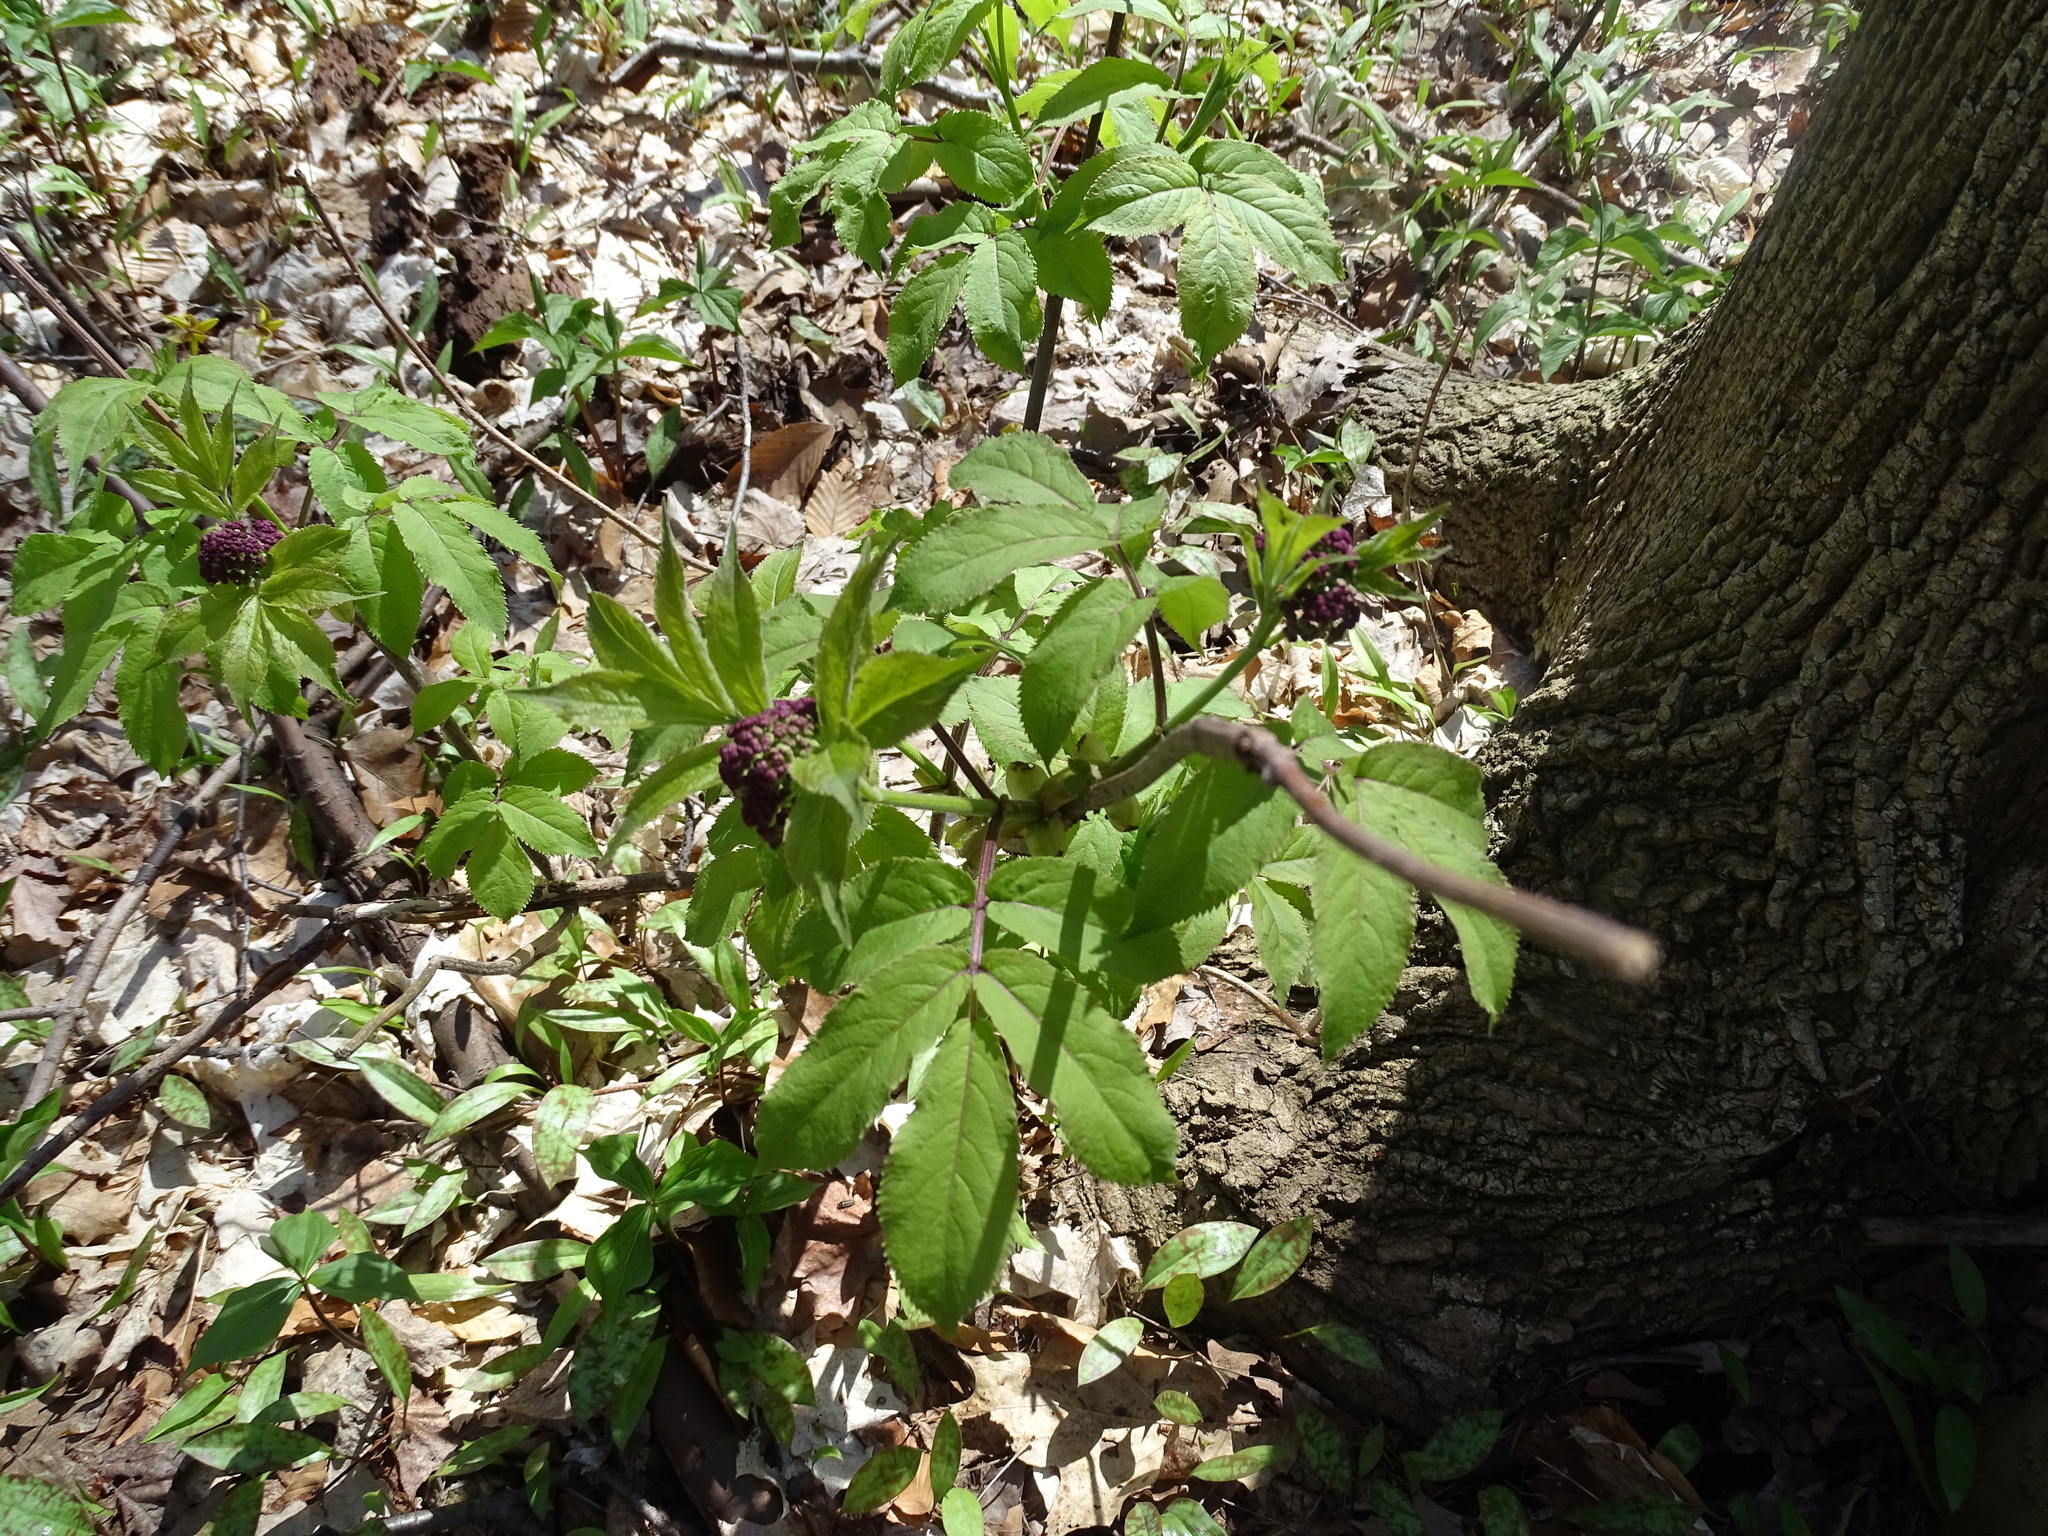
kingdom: Plantae
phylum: Tracheophyta
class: Magnoliopsida
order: Dipsacales
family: Viburnaceae
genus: Sambucus
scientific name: Sambucus racemosa
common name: Red-berried elder
